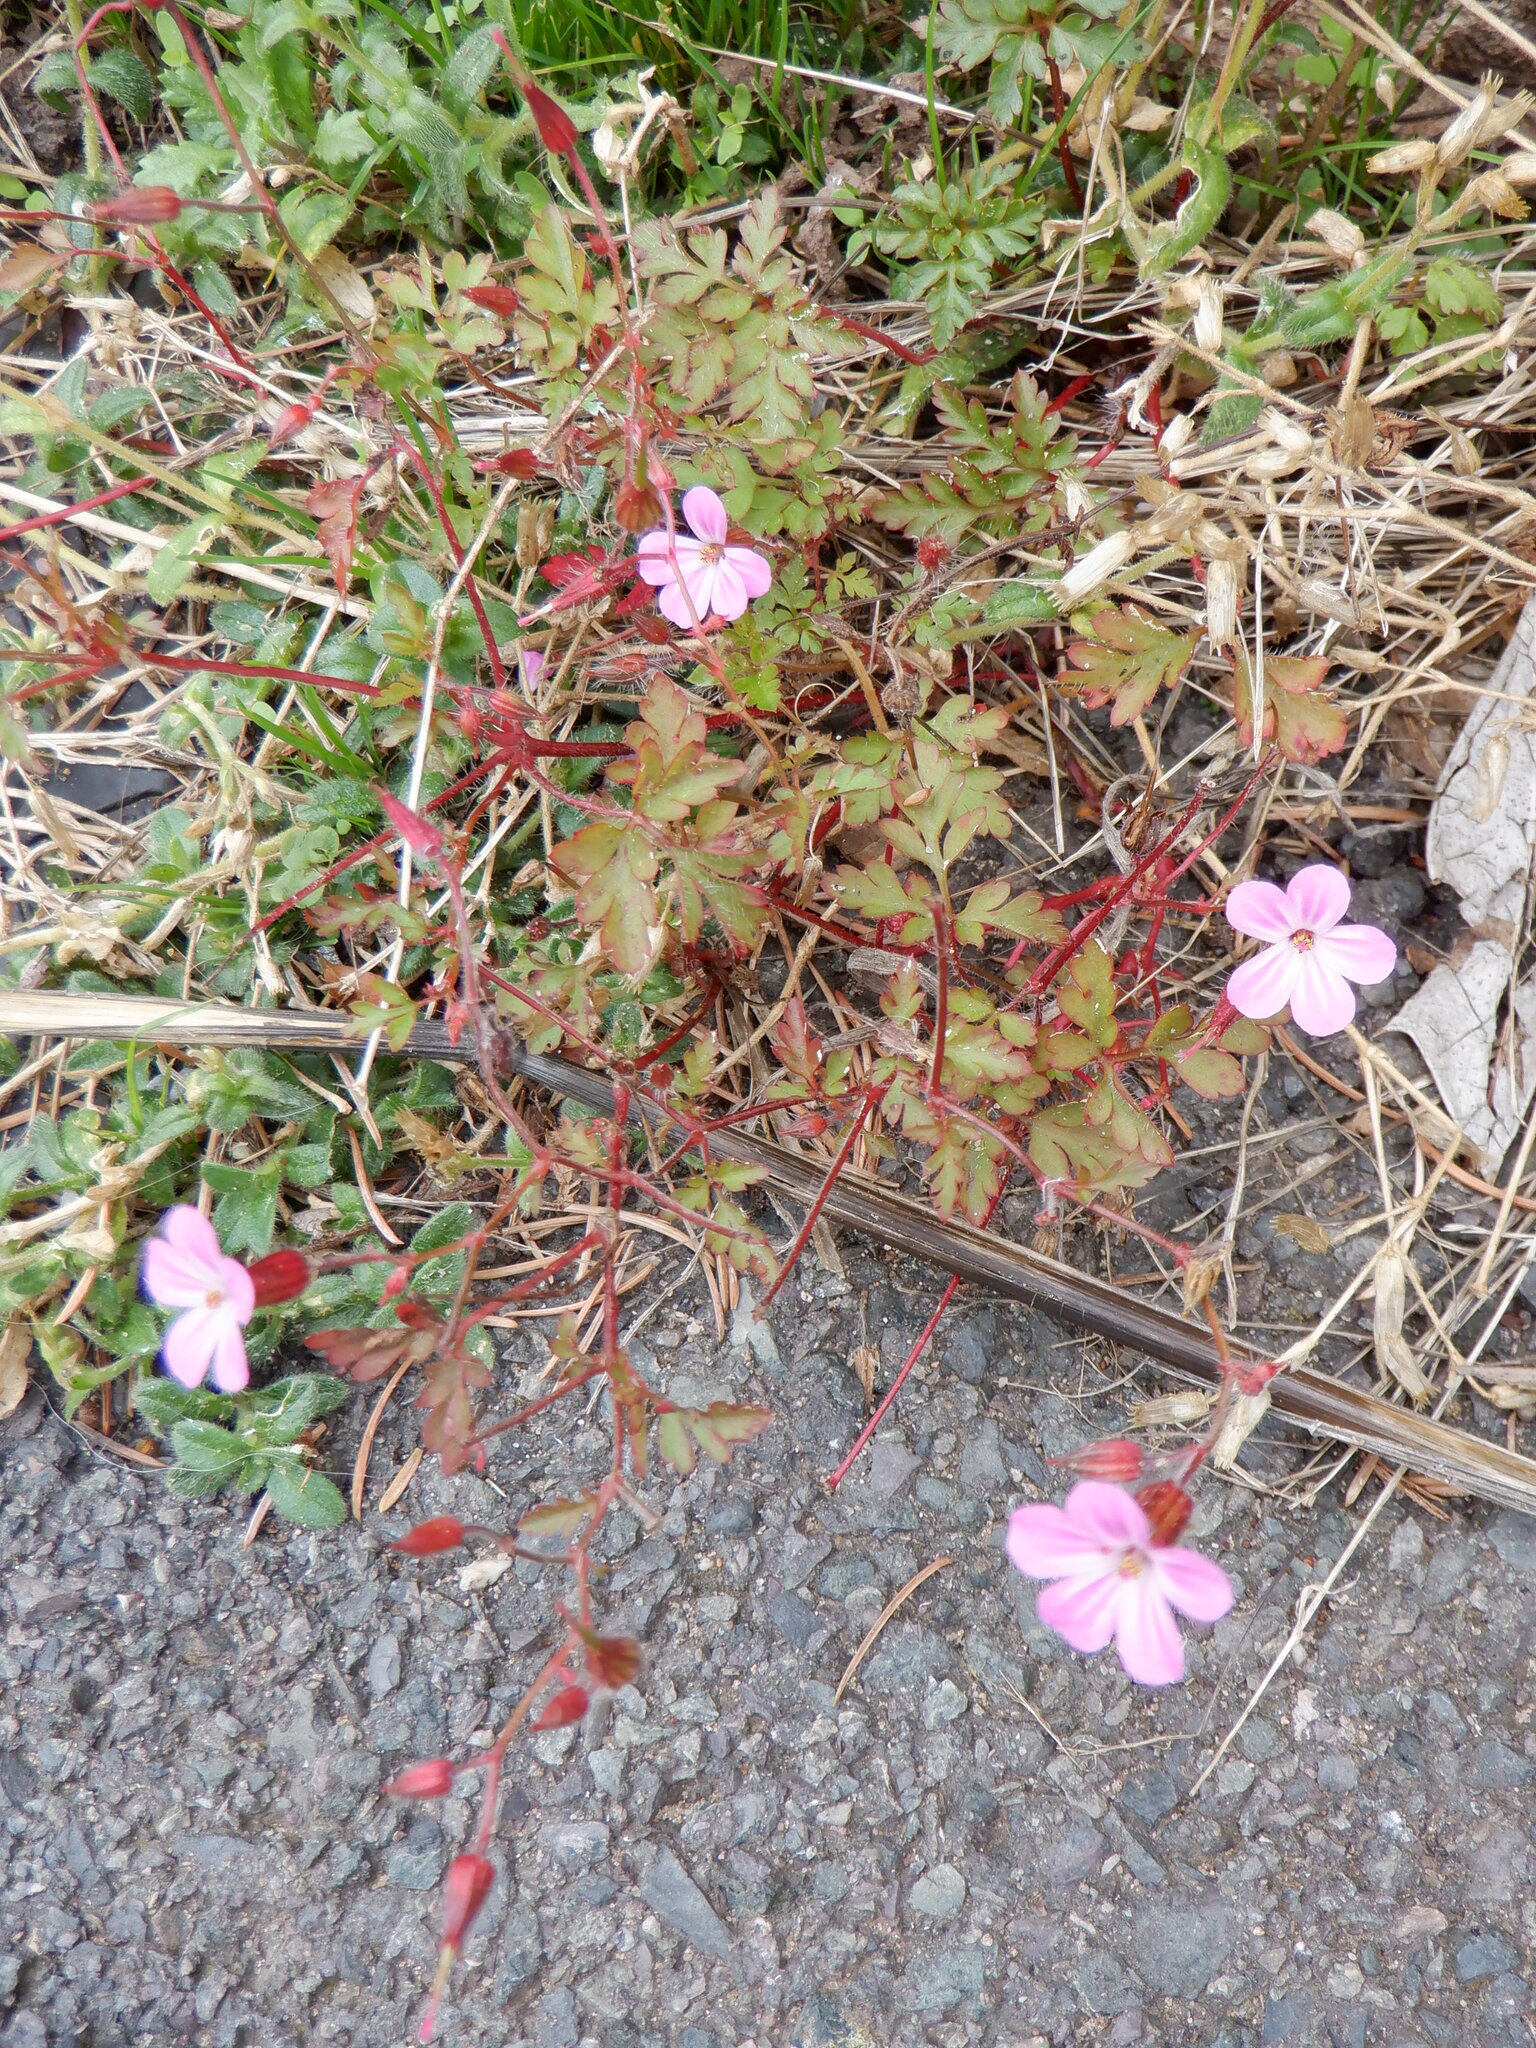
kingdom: Plantae
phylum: Tracheophyta
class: Magnoliopsida
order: Geraniales
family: Geraniaceae
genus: Geranium
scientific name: Geranium robertianum
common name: Herb-robert
